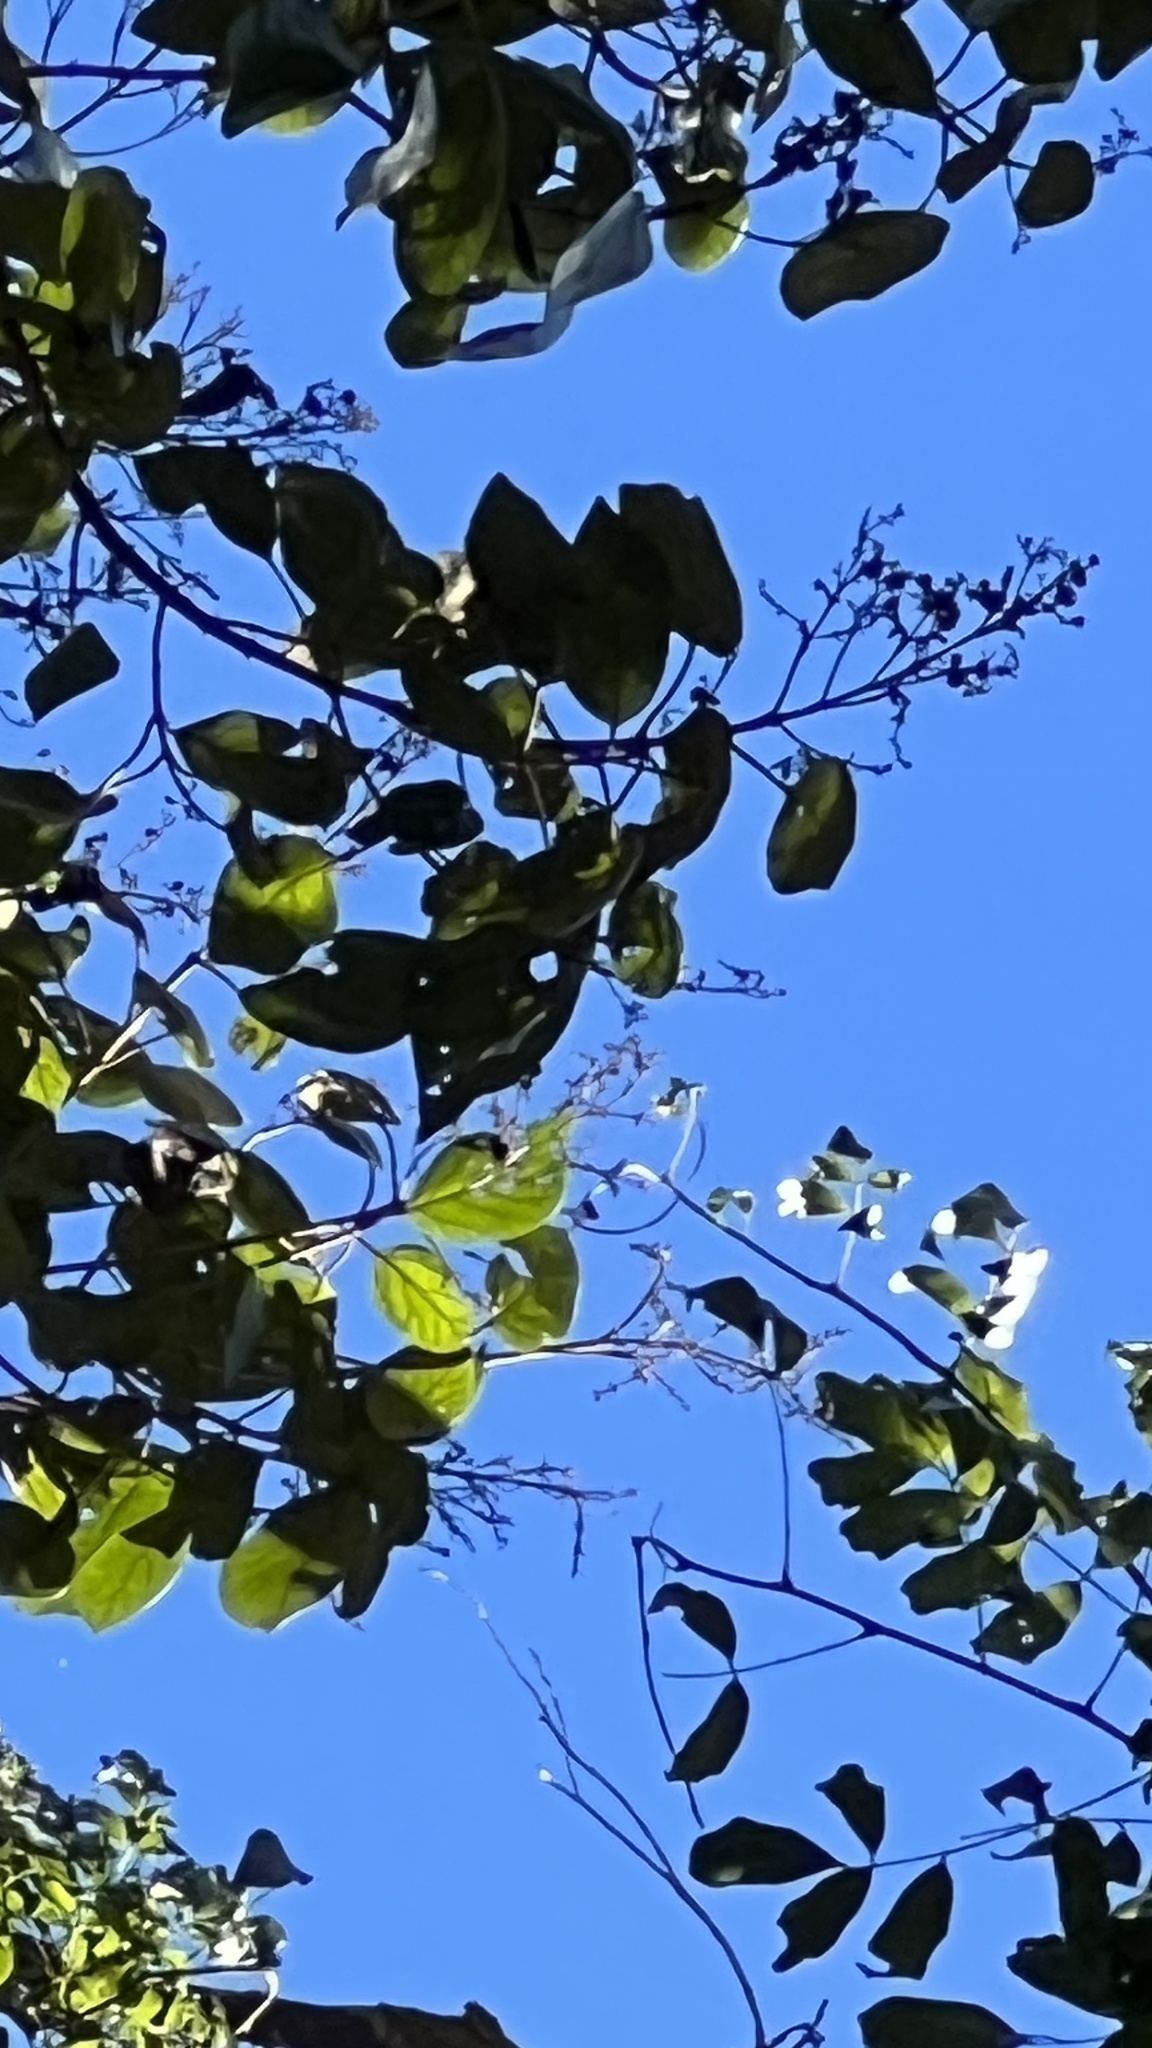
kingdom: Plantae
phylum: Tracheophyta
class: Magnoliopsida
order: Lamiales
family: Lamiaceae
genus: Gmelina
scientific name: Gmelina leichhardtii
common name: Queensland-beech
